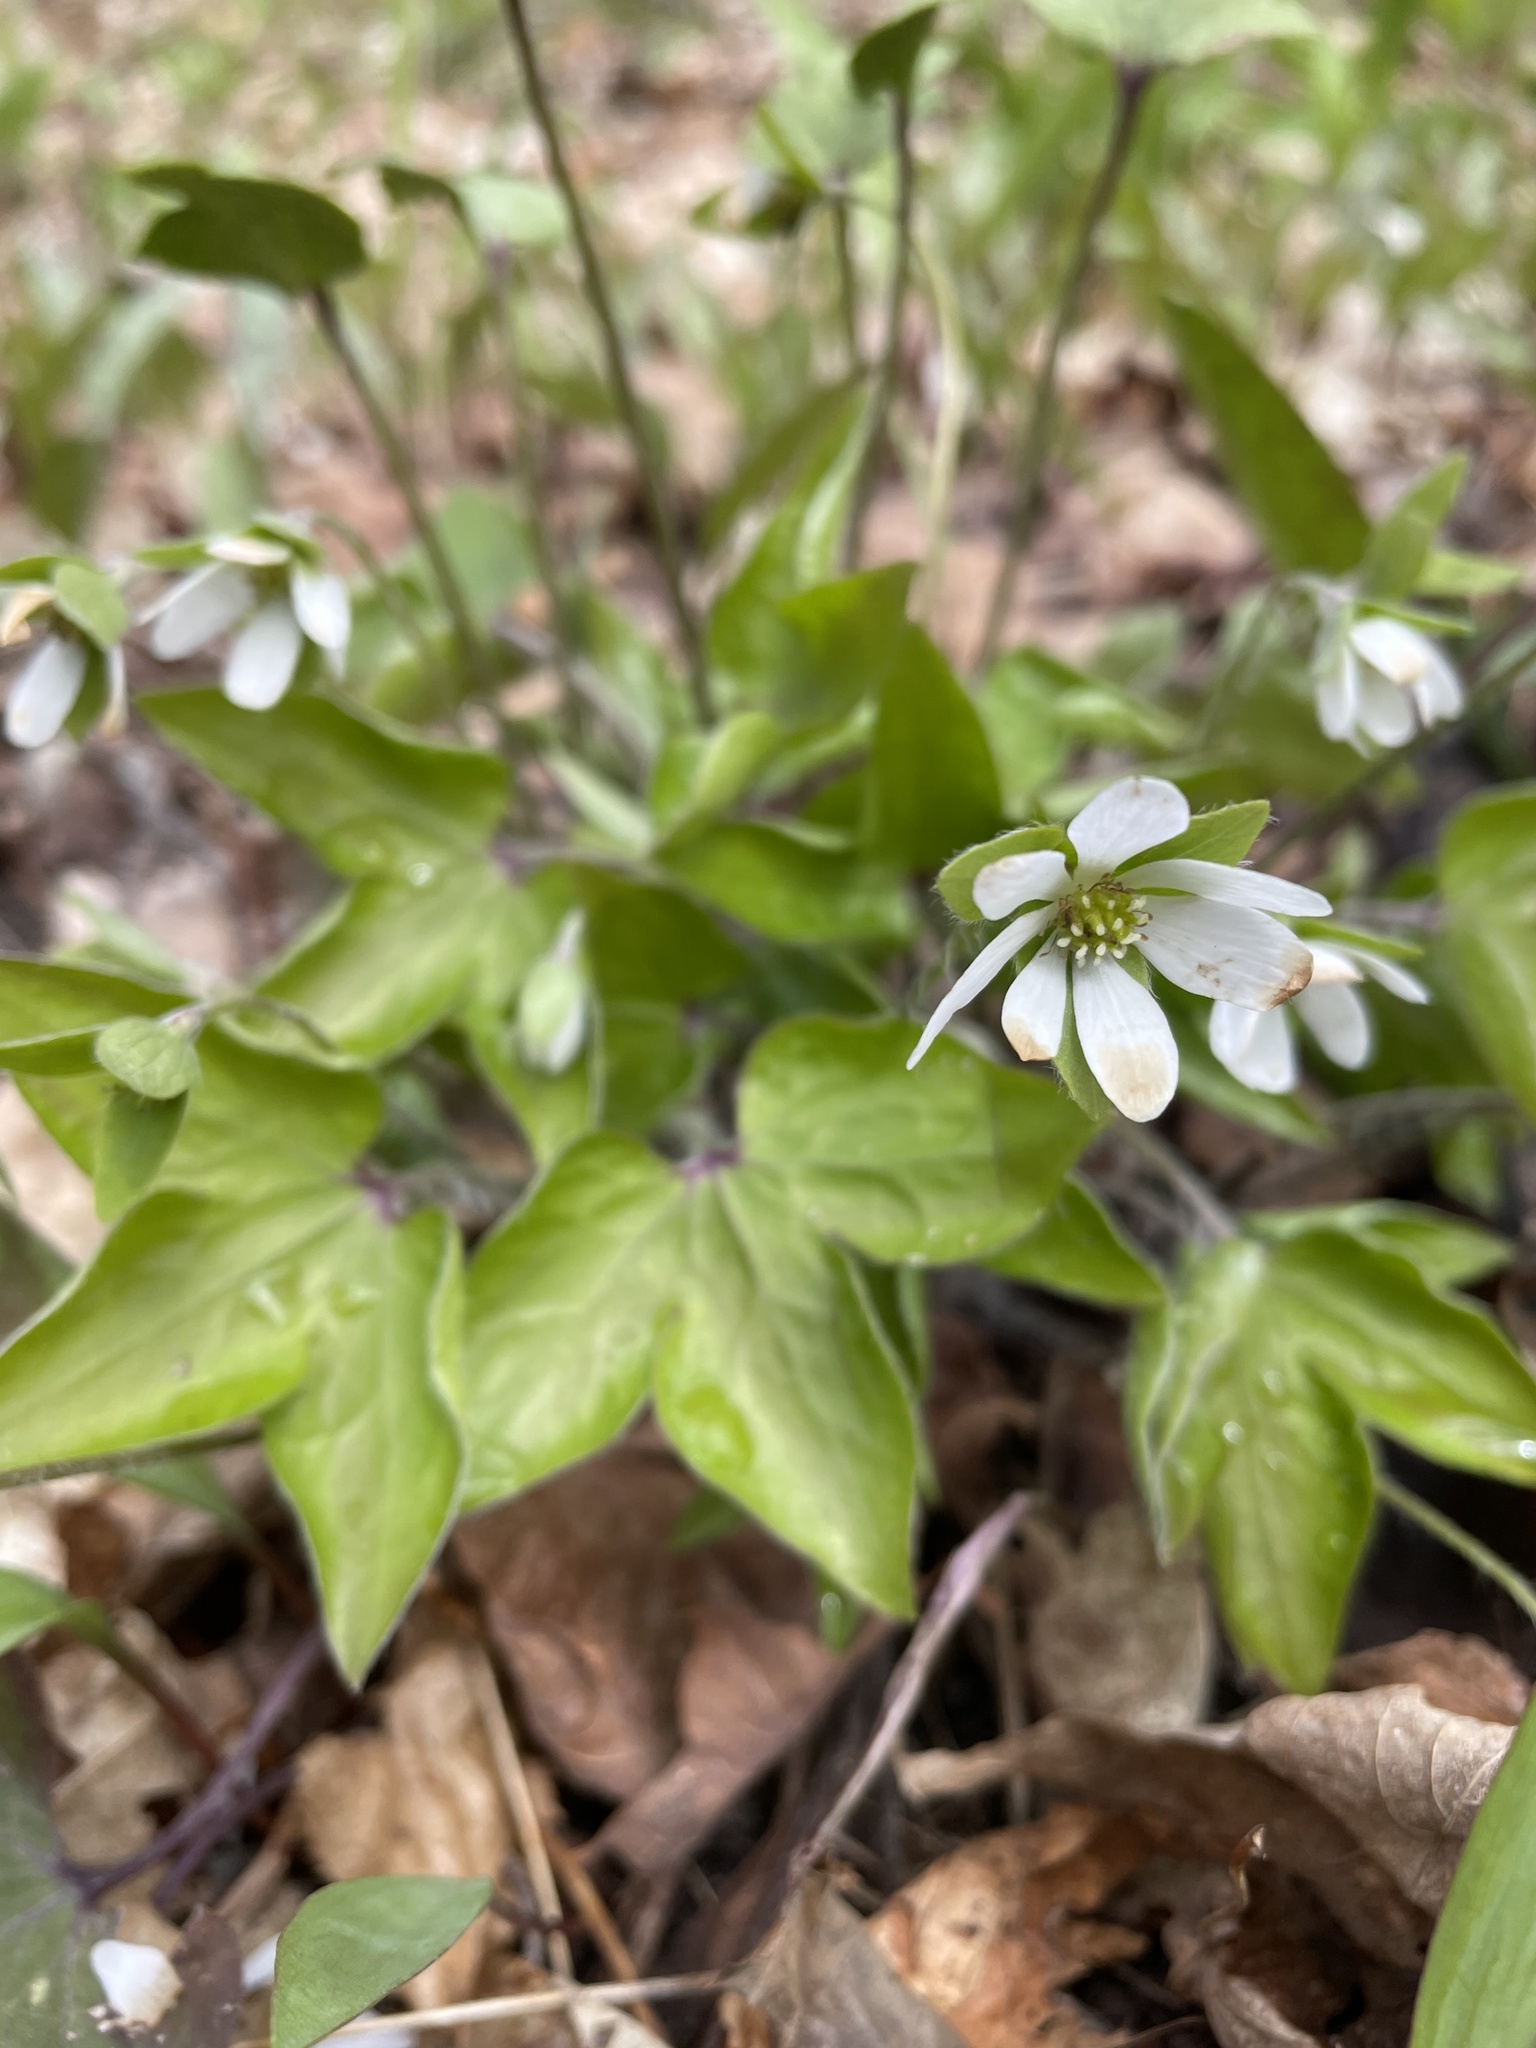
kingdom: Plantae
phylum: Tracheophyta
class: Magnoliopsida
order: Ranunculales
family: Ranunculaceae
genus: Hepatica
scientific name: Hepatica acutiloba
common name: Sharp-lobed hepatica
